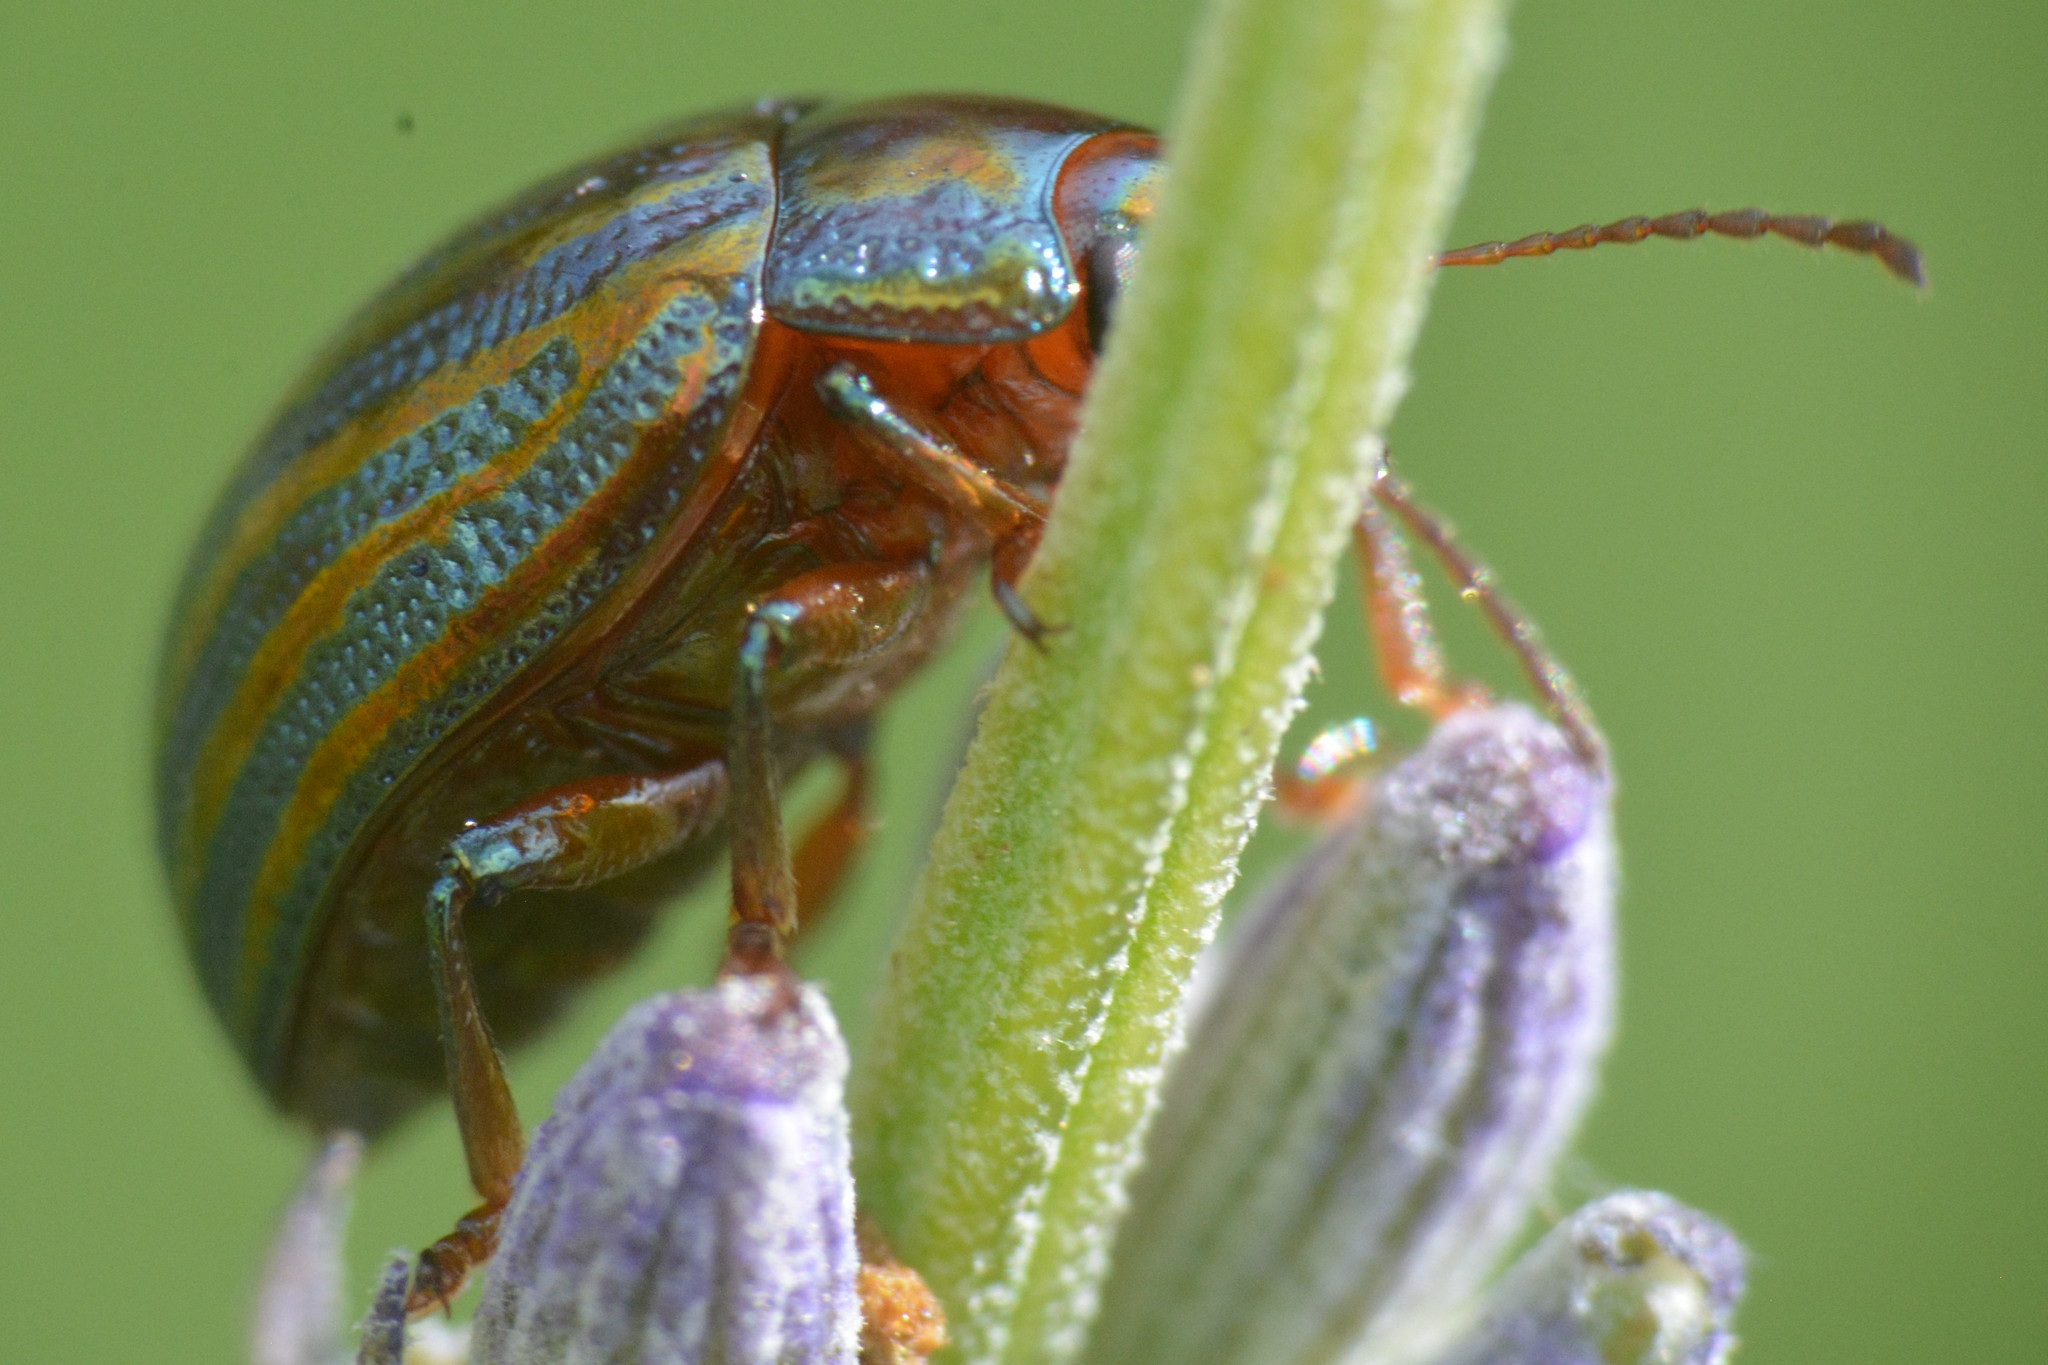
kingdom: Animalia
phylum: Arthropoda
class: Insecta
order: Coleoptera
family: Chrysomelidae
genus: Chrysolina
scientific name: Chrysolina americana
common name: Rosemary beetle
